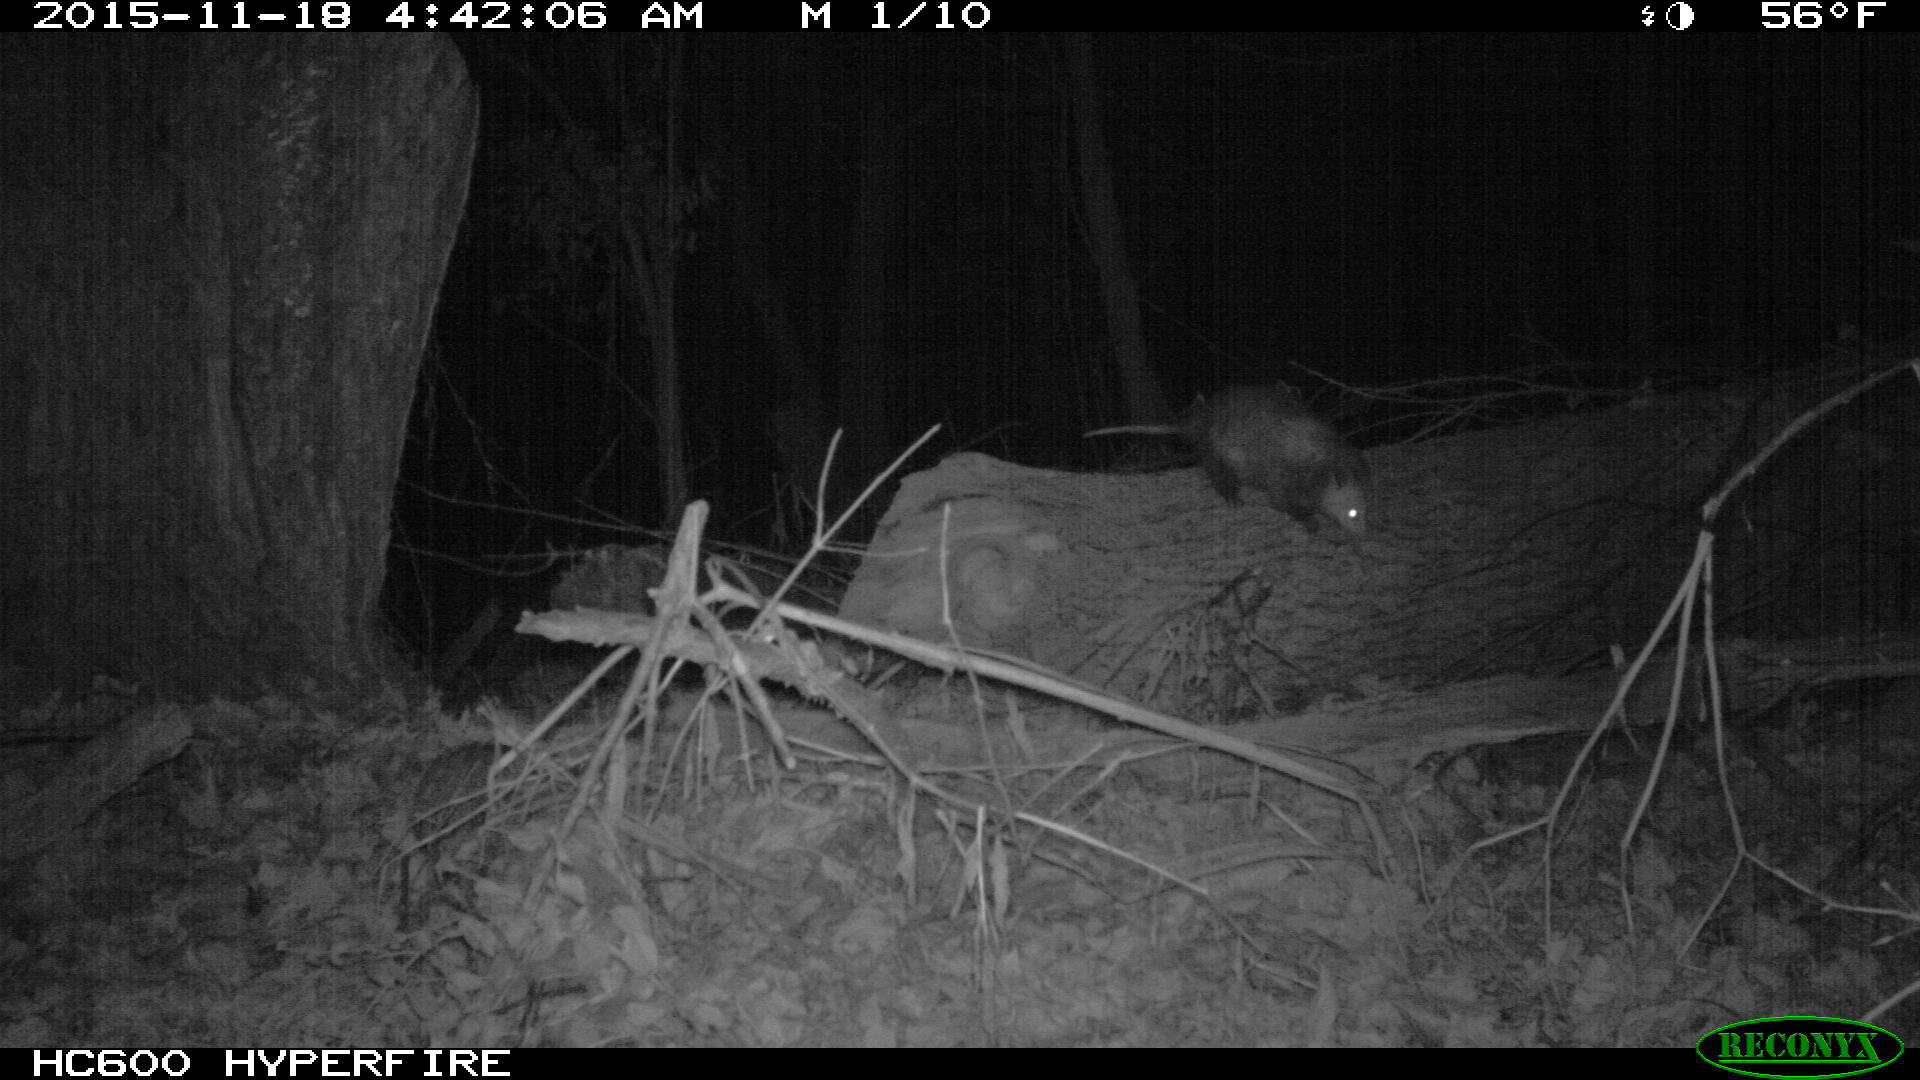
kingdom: Animalia
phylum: Chordata
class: Mammalia
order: Didelphimorphia
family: Didelphidae
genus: Didelphis
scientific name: Didelphis virginiana
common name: Virginia opossum
